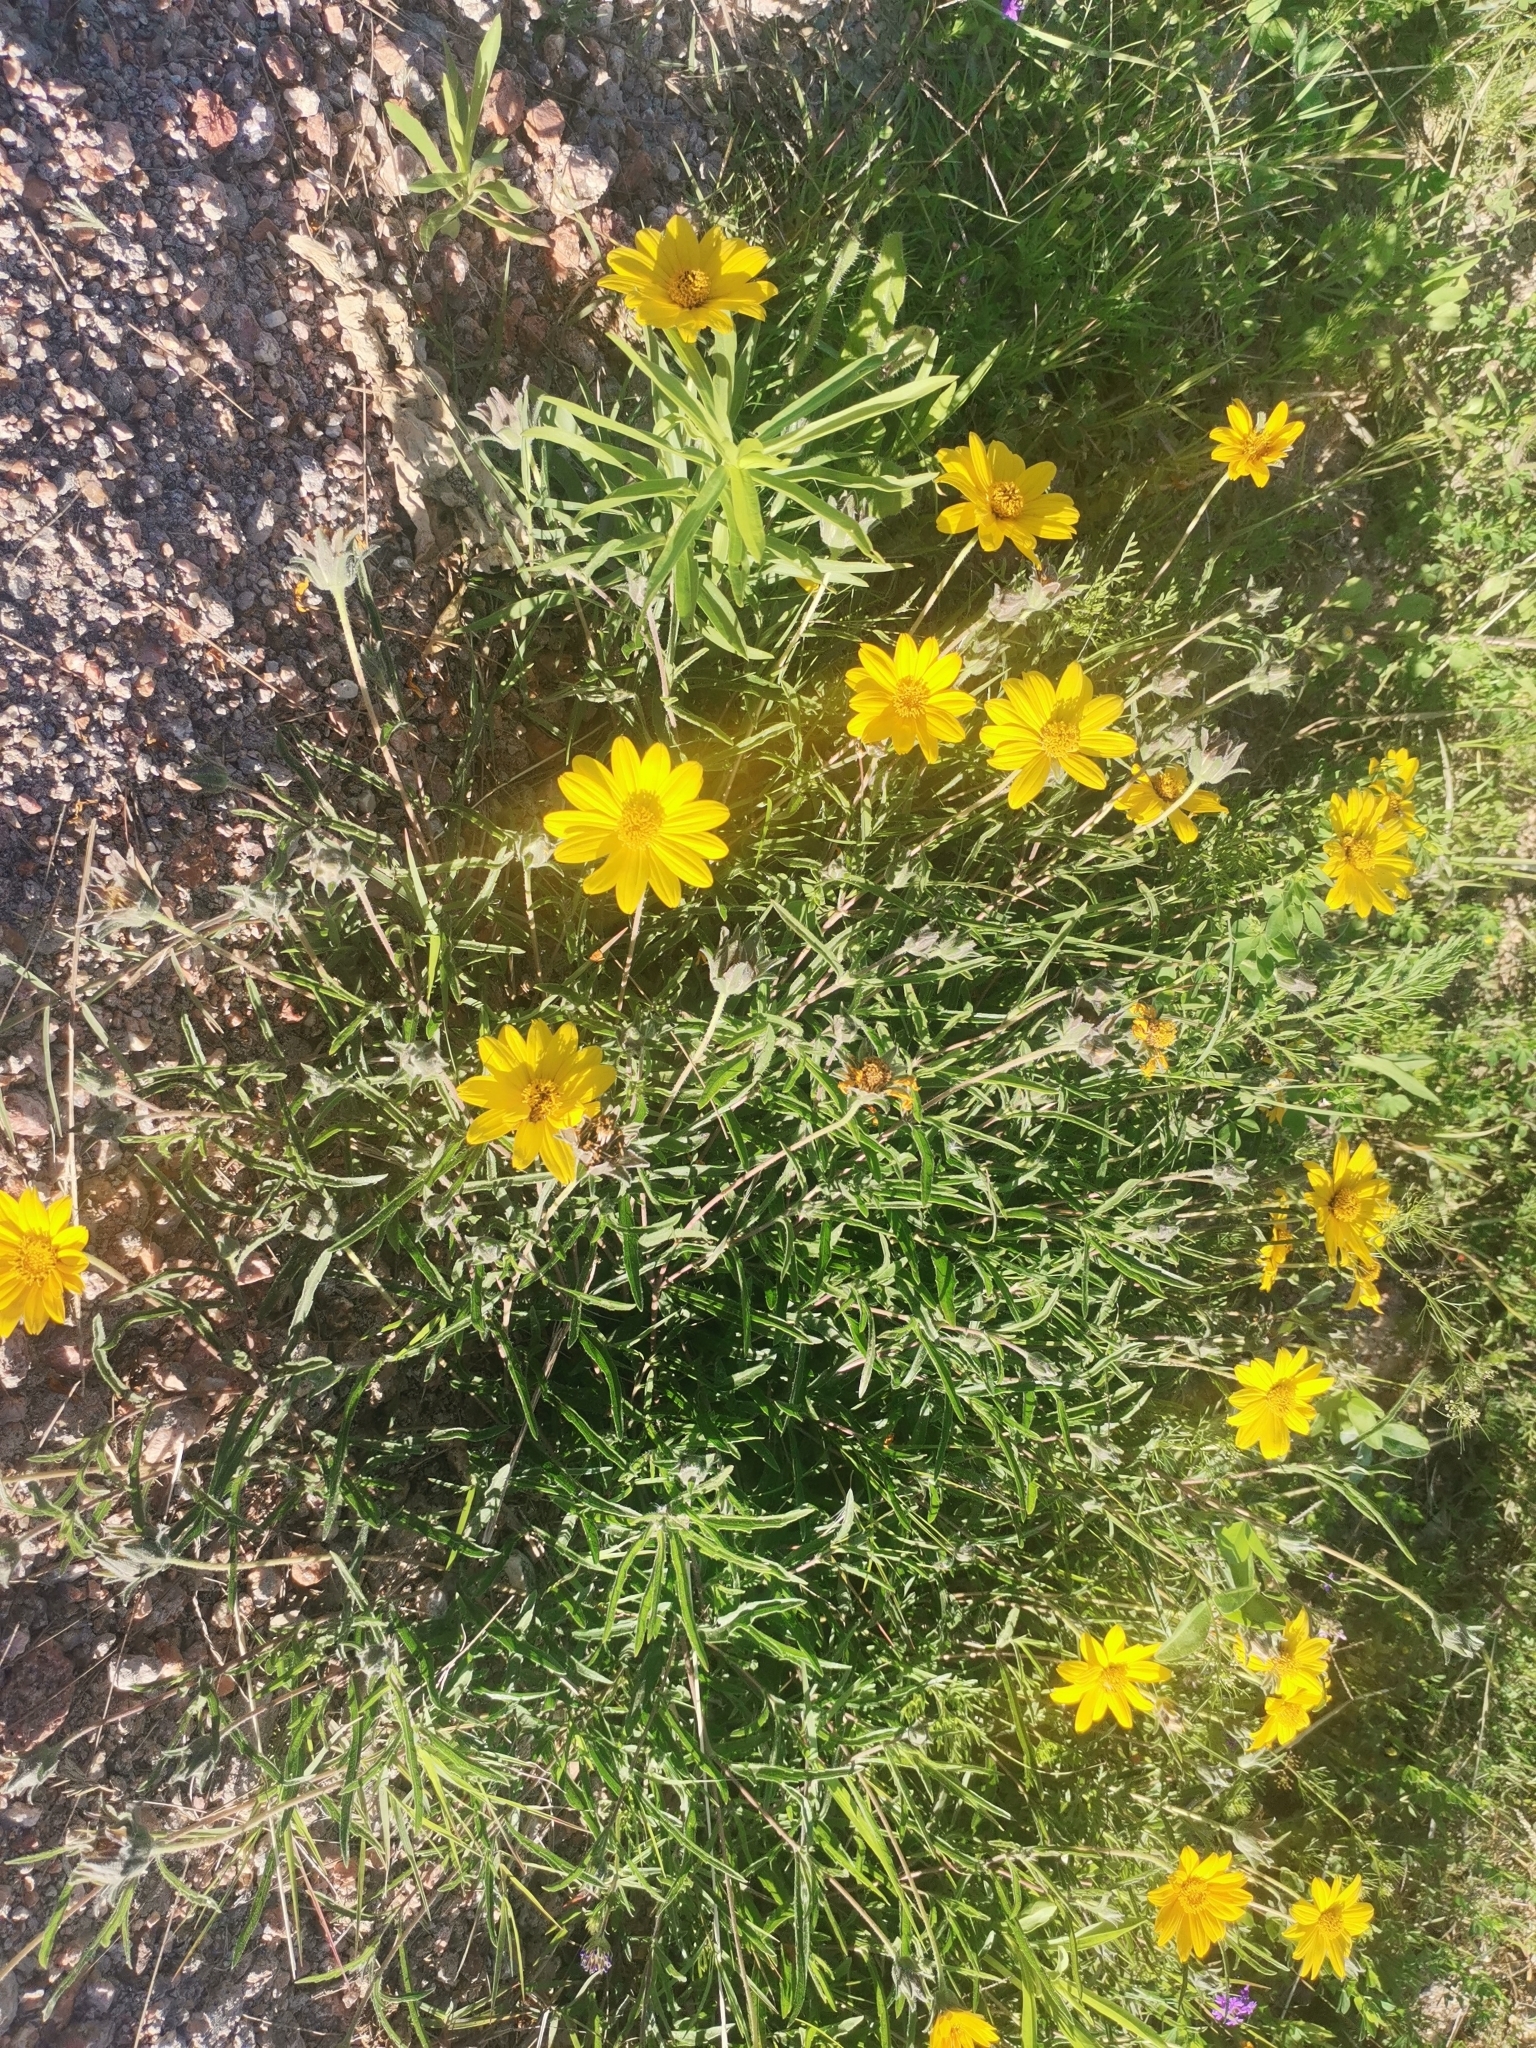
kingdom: Plantae
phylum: Tracheophyta
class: Magnoliopsida
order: Asterales
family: Asteraceae
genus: Wedelia
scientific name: Wedelia montevidensis
